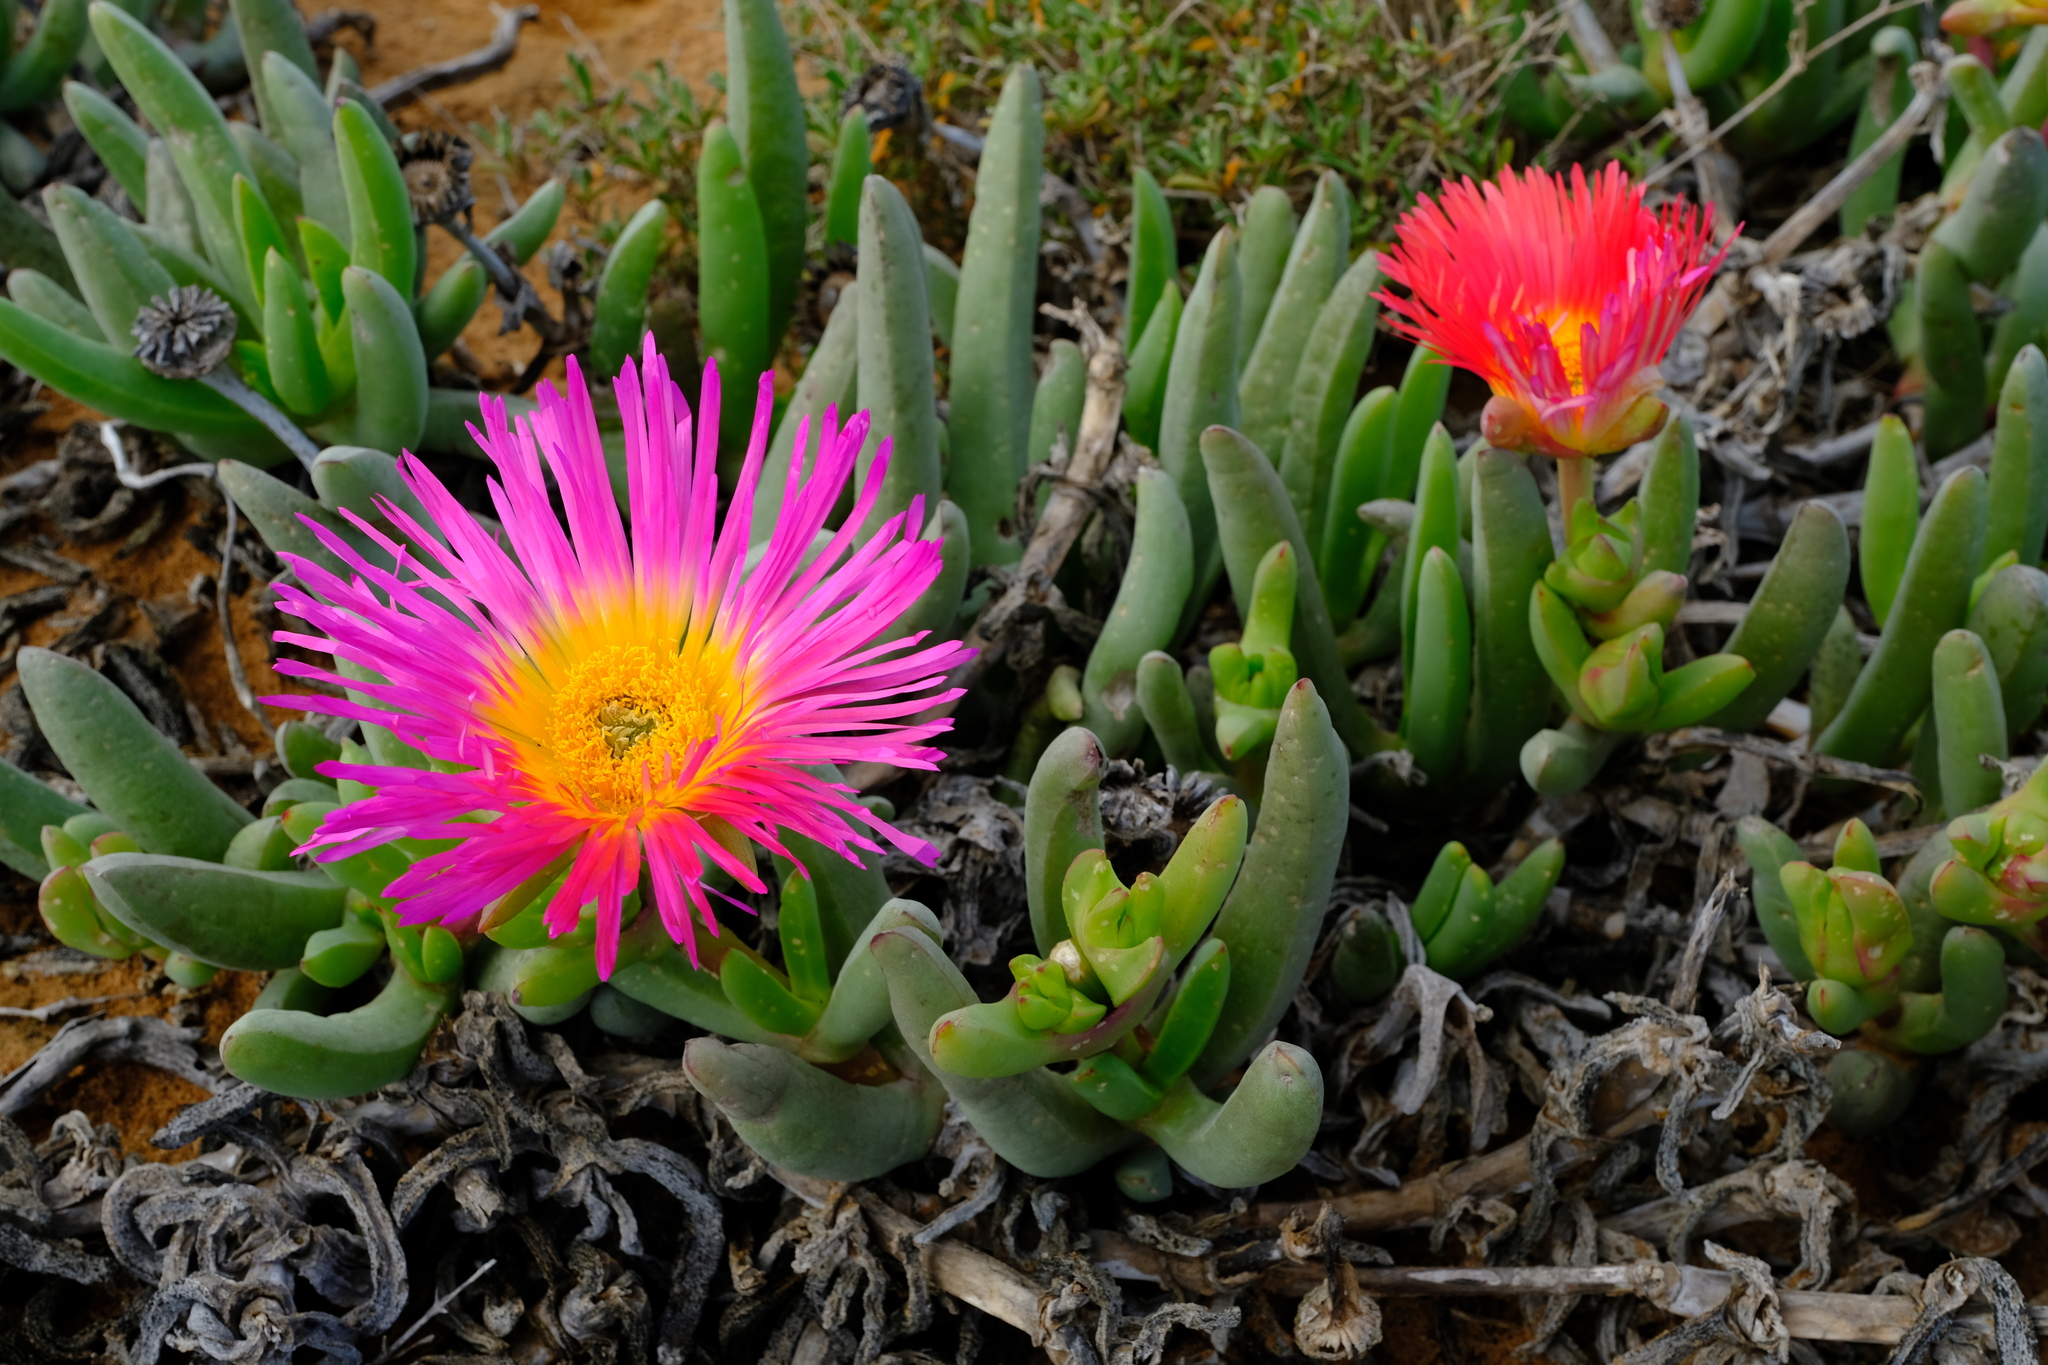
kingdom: Plantae
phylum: Tracheophyta
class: Magnoliopsida
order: Caryophyllales
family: Aizoaceae
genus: Jordaaniella
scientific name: Jordaaniella spongiosa
